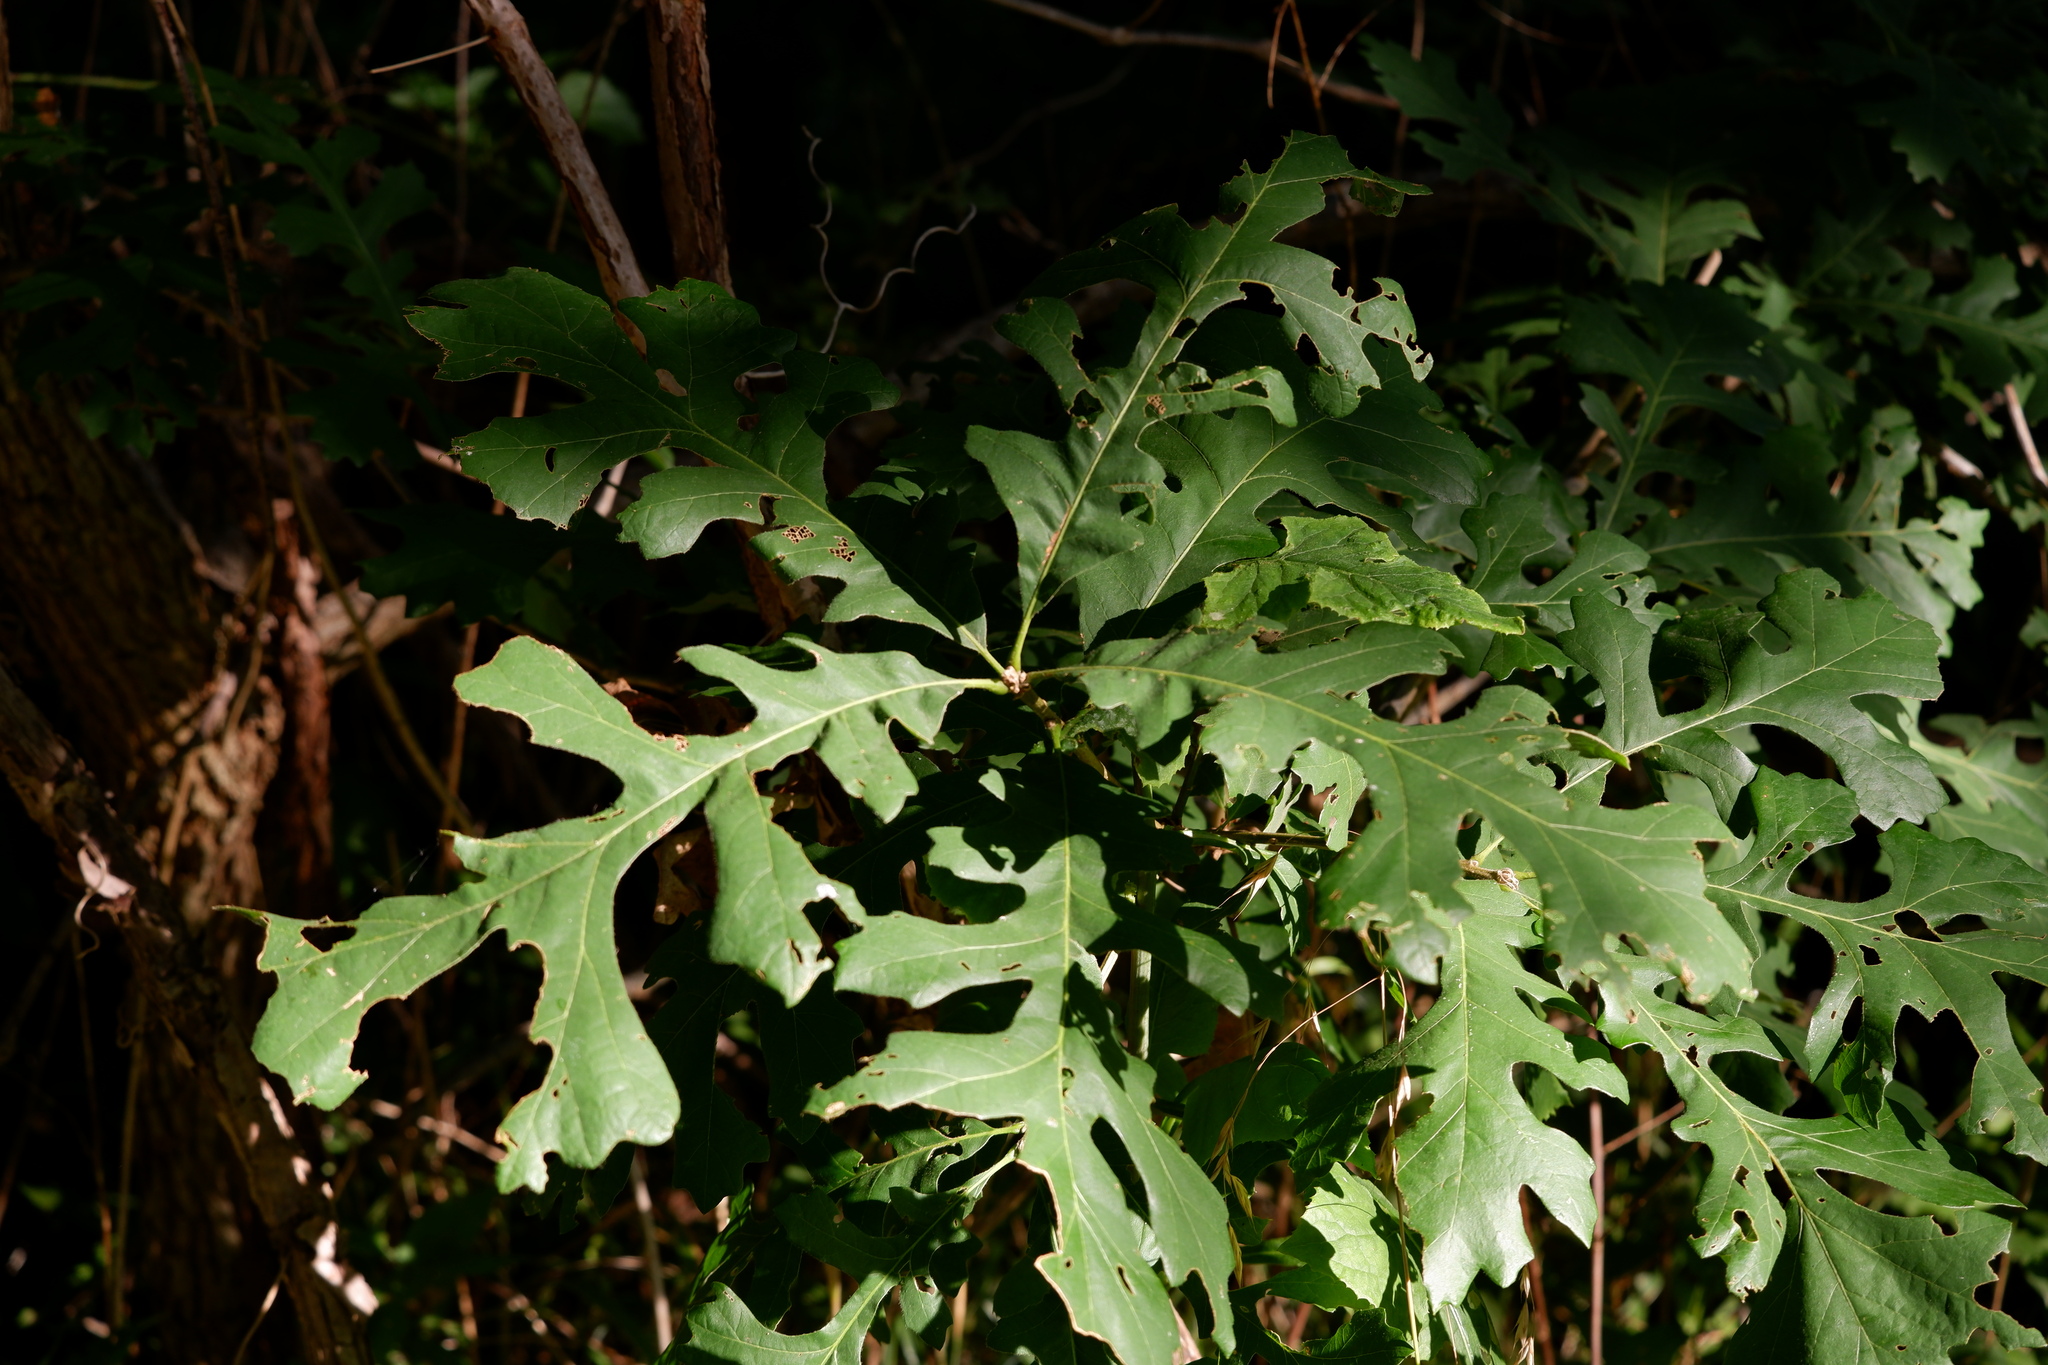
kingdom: Plantae
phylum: Tracheophyta
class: Magnoliopsida
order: Fagales
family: Fagaceae
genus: Quercus
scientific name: Quercus macrocarpa
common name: Bur oak
